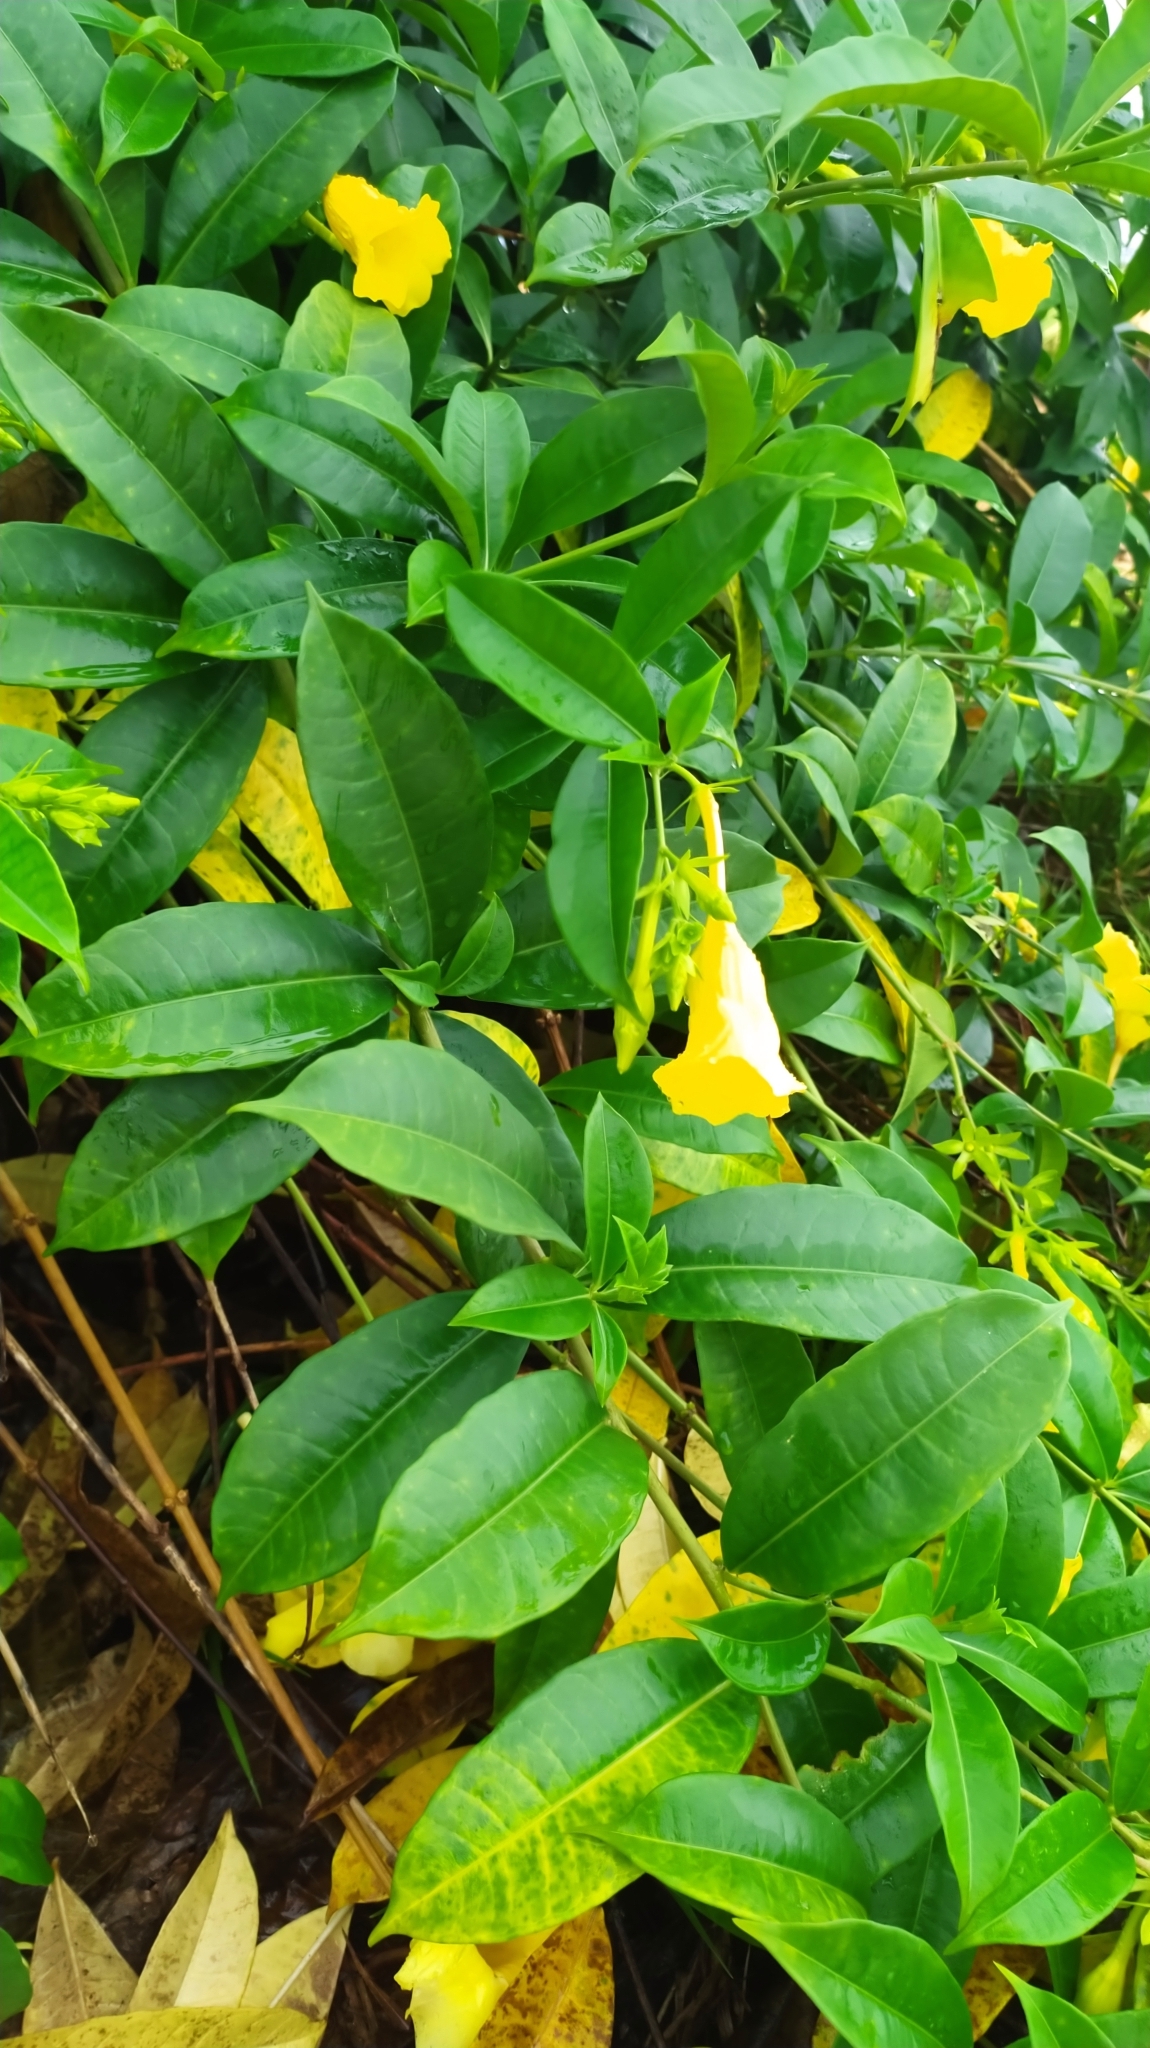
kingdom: Plantae
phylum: Tracheophyta
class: Magnoliopsida
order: Gentianales
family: Apocynaceae
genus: Allamanda
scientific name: Allamanda cathartica
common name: Golden trumpet
